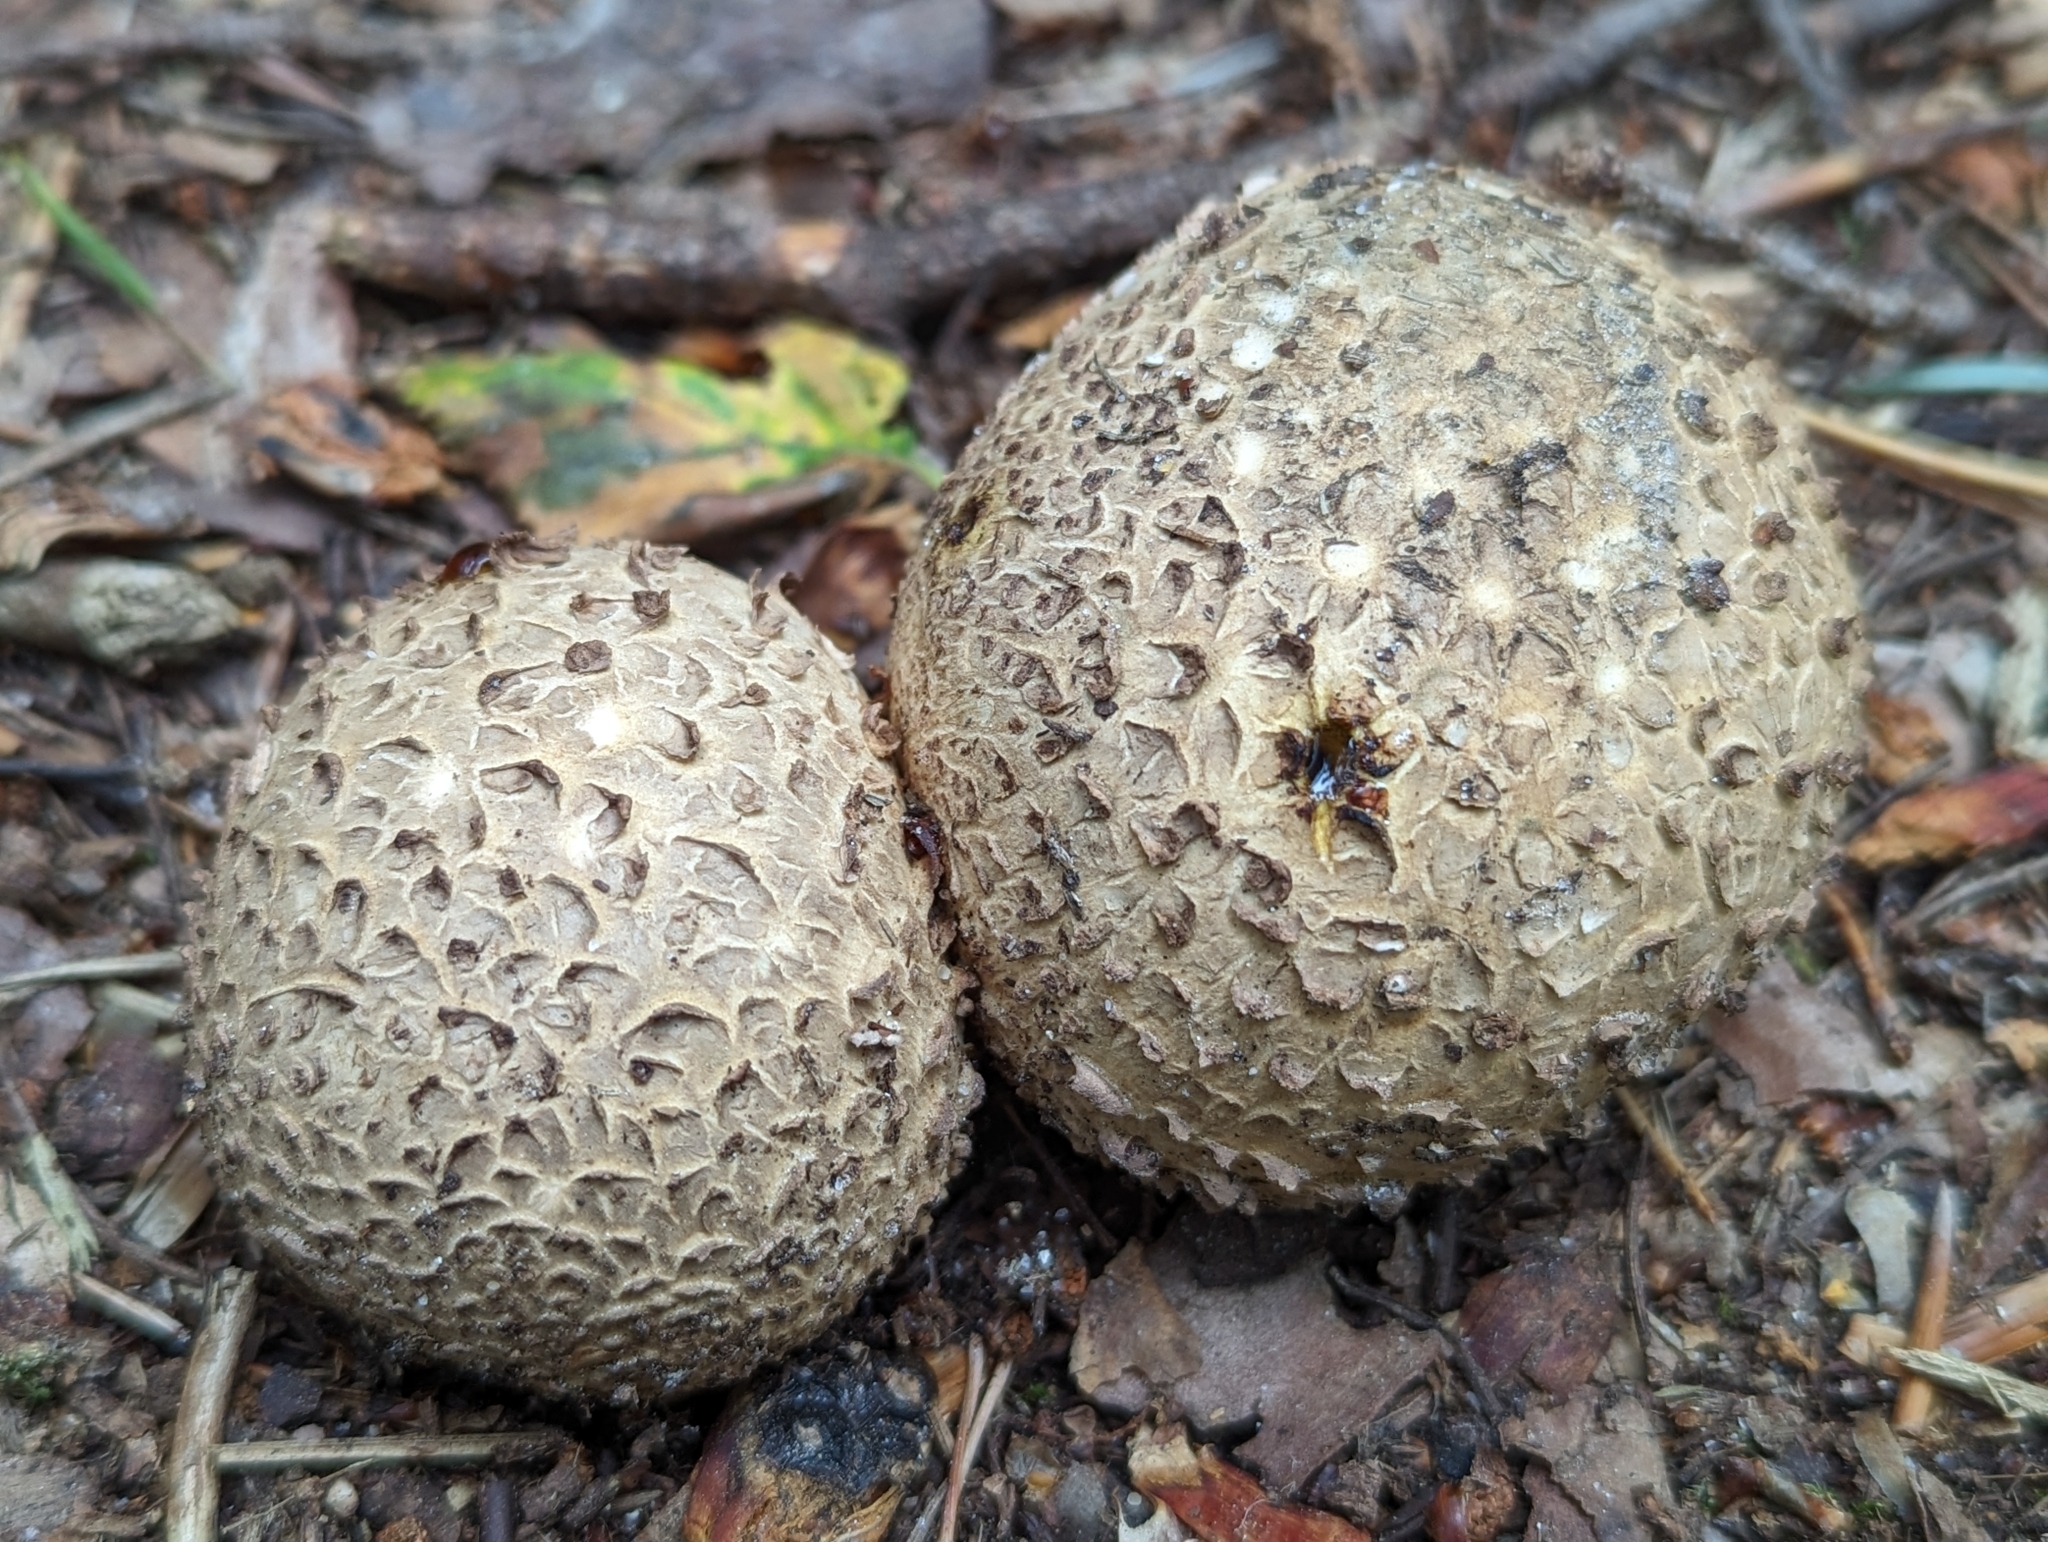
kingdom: Fungi
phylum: Basidiomycota
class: Agaricomycetes
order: Boletales
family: Sclerodermataceae
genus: Scleroderma
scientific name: Scleroderma citrinum
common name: Common earthball
